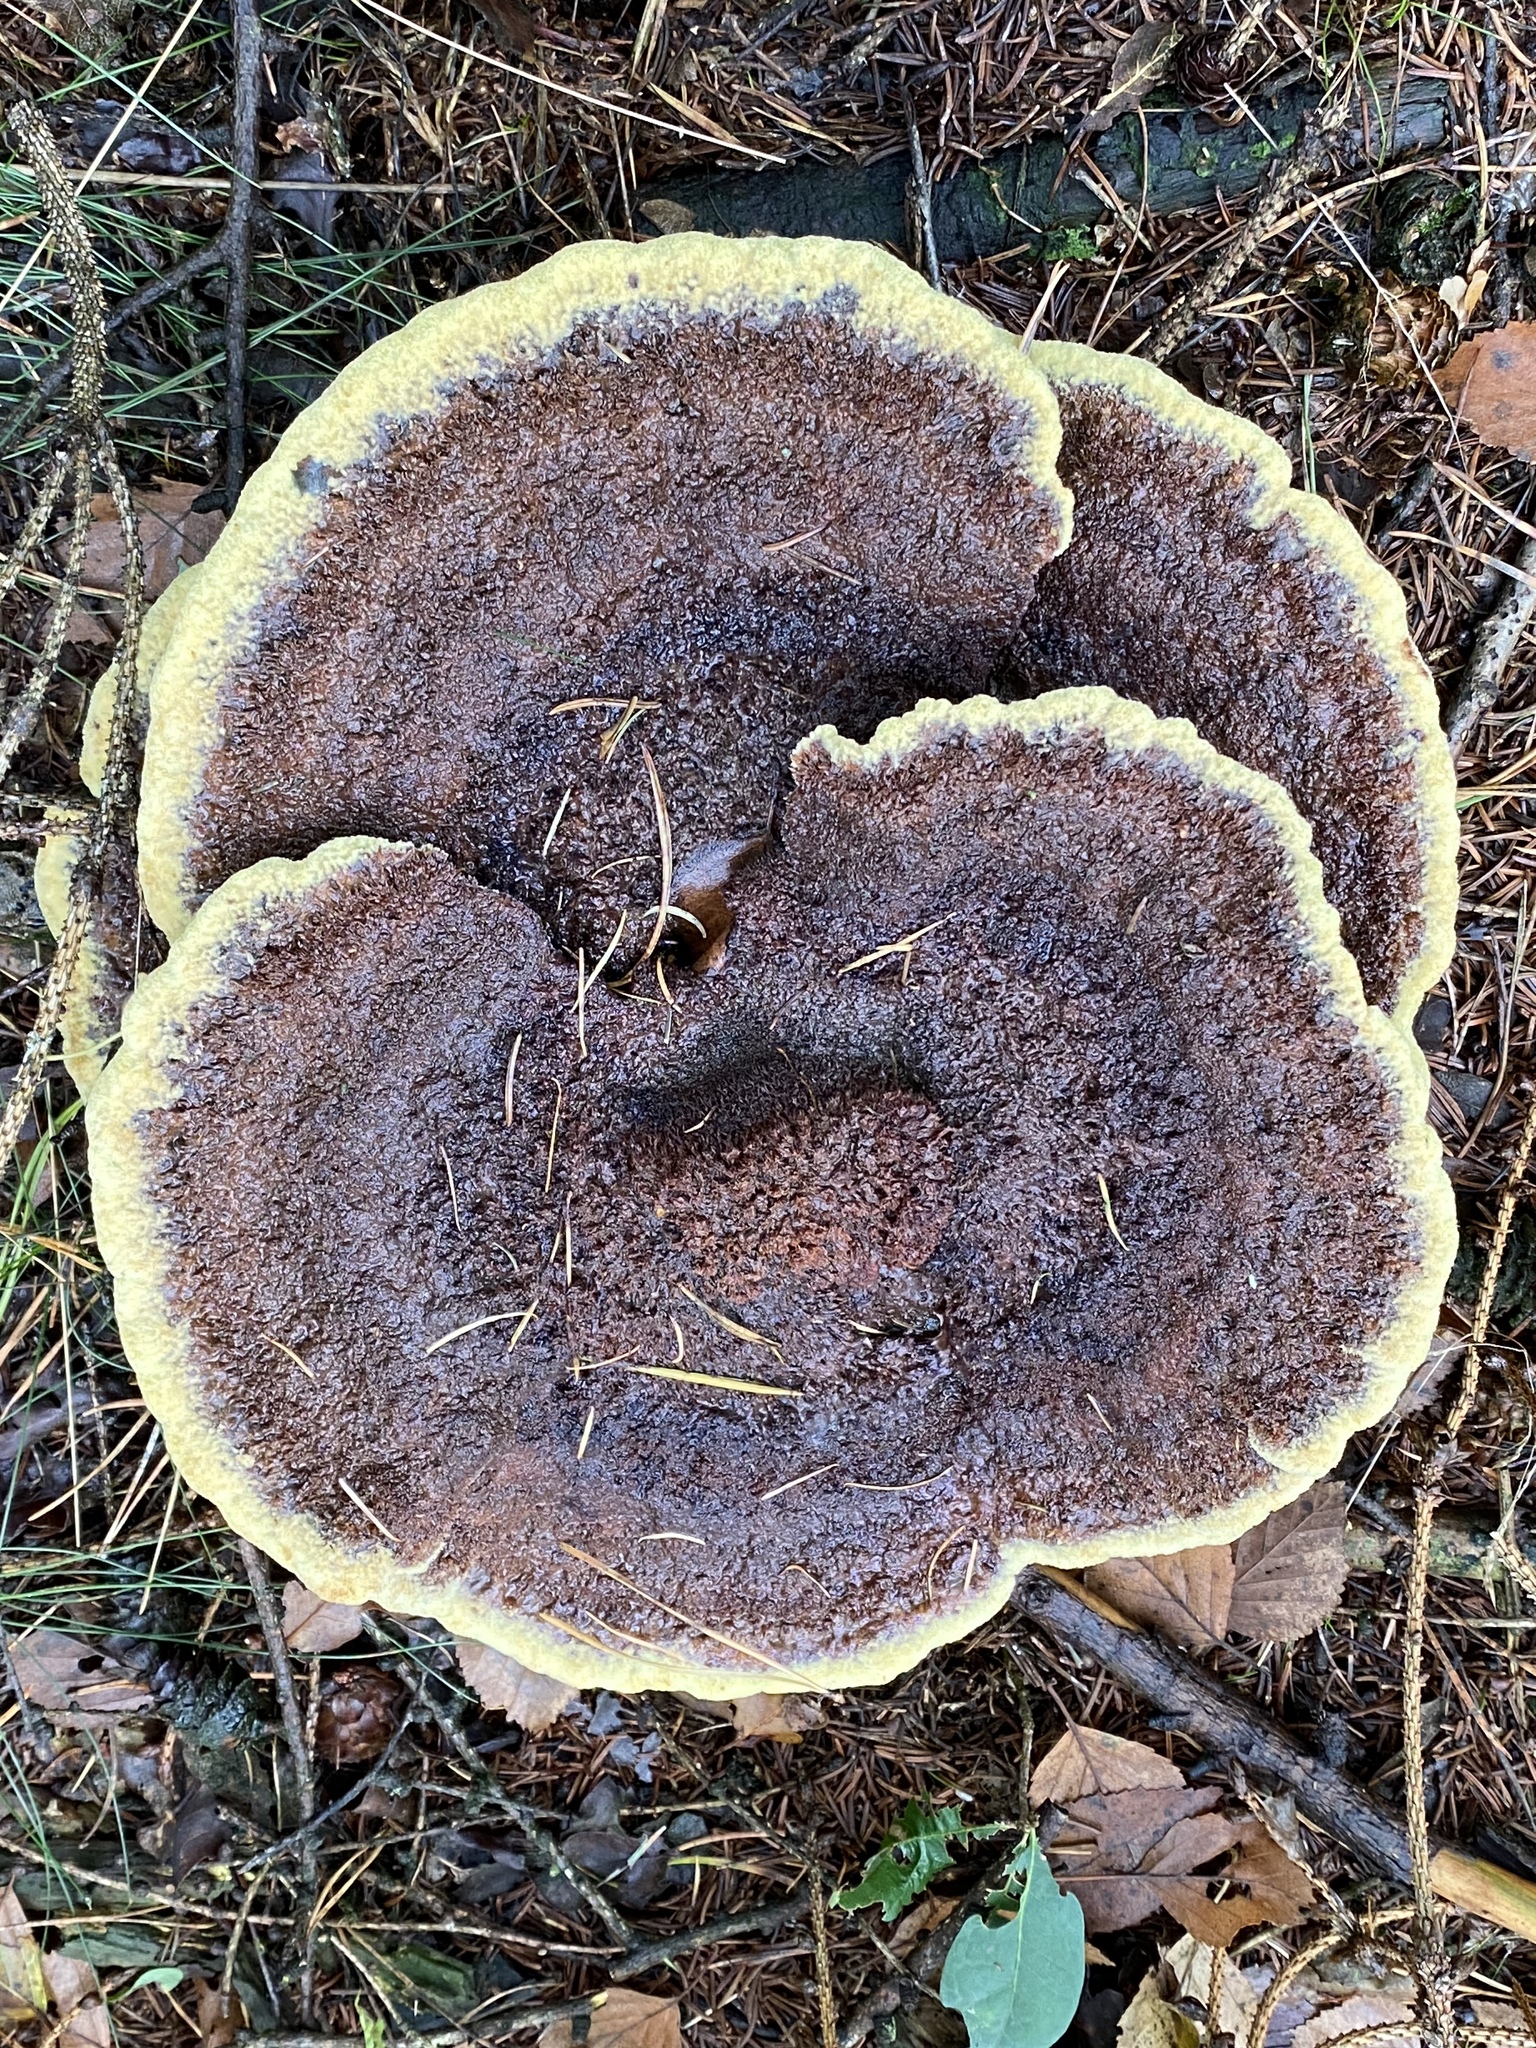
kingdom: Fungi
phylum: Basidiomycota
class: Agaricomycetes
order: Polyporales
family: Laetiporaceae
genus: Phaeolus
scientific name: Phaeolus schweinitzii
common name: Dyer's mazegill
